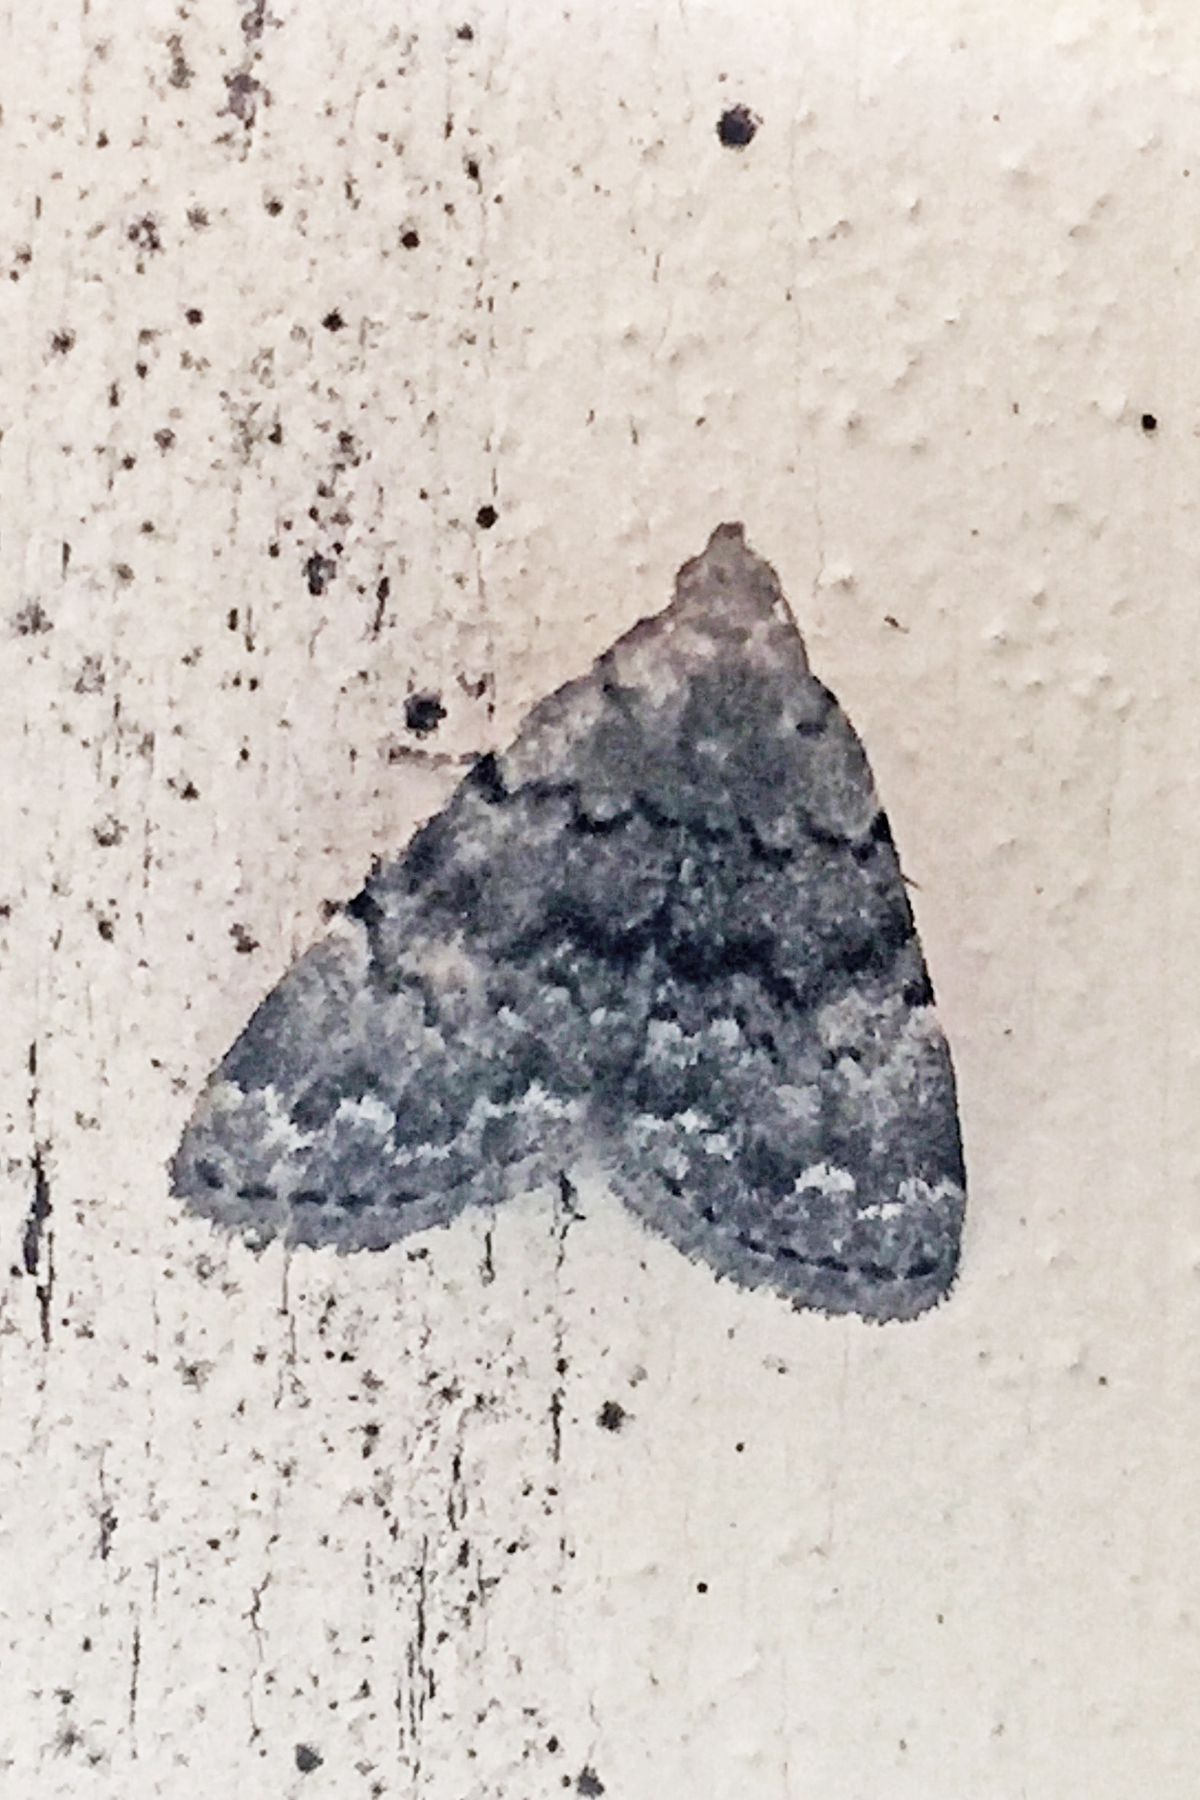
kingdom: Animalia
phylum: Arthropoda
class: Insecta
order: Lepidoptera
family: Erebidae
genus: Idia
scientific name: Idia aemula
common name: Common idia moth
